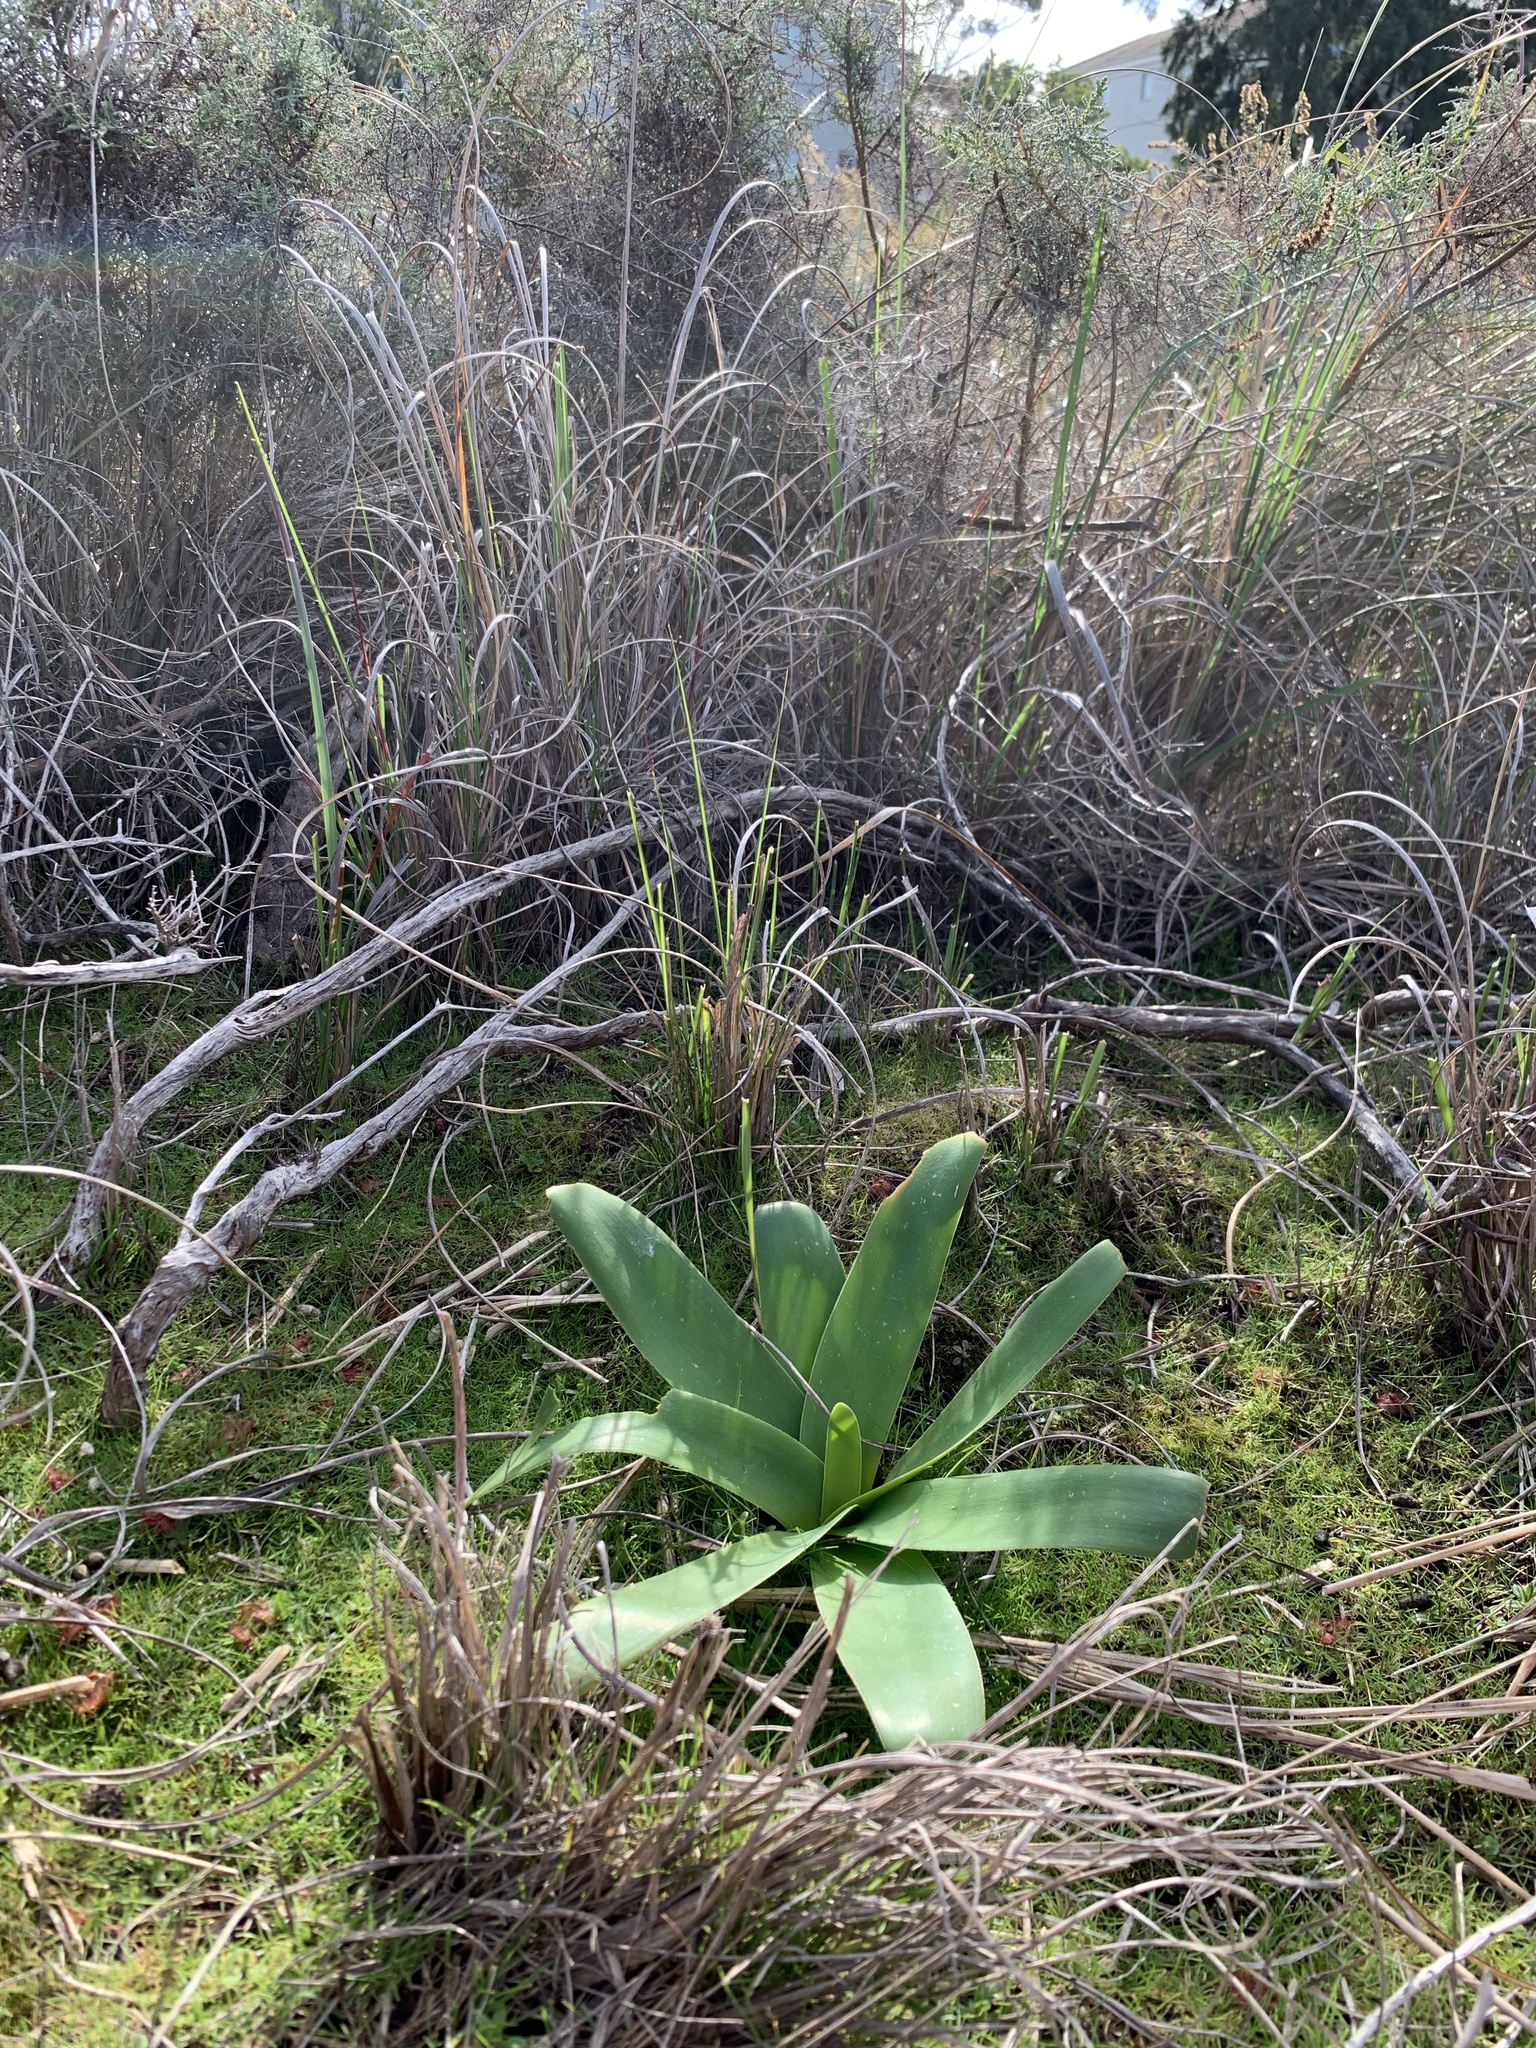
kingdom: Plantae
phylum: Tracheophyta
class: Liliopsida
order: Asparagales
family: Amaryllidaceae
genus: Ammocharis
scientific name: Ammocharis longifolia
